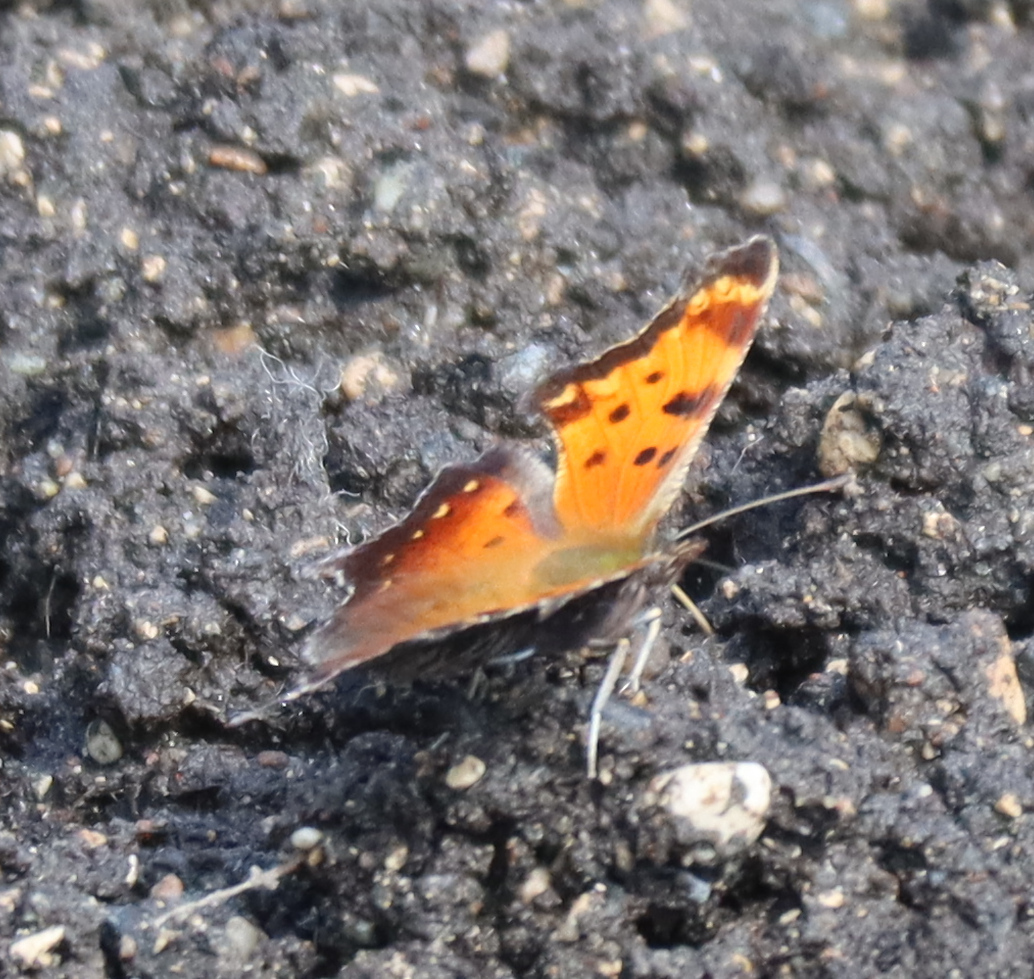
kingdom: Animalia
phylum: Arthropoda
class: Insecta
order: Lepidoptera
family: Nymphalidae
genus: Polygonia
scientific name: Polygonia progne
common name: Gray comma
